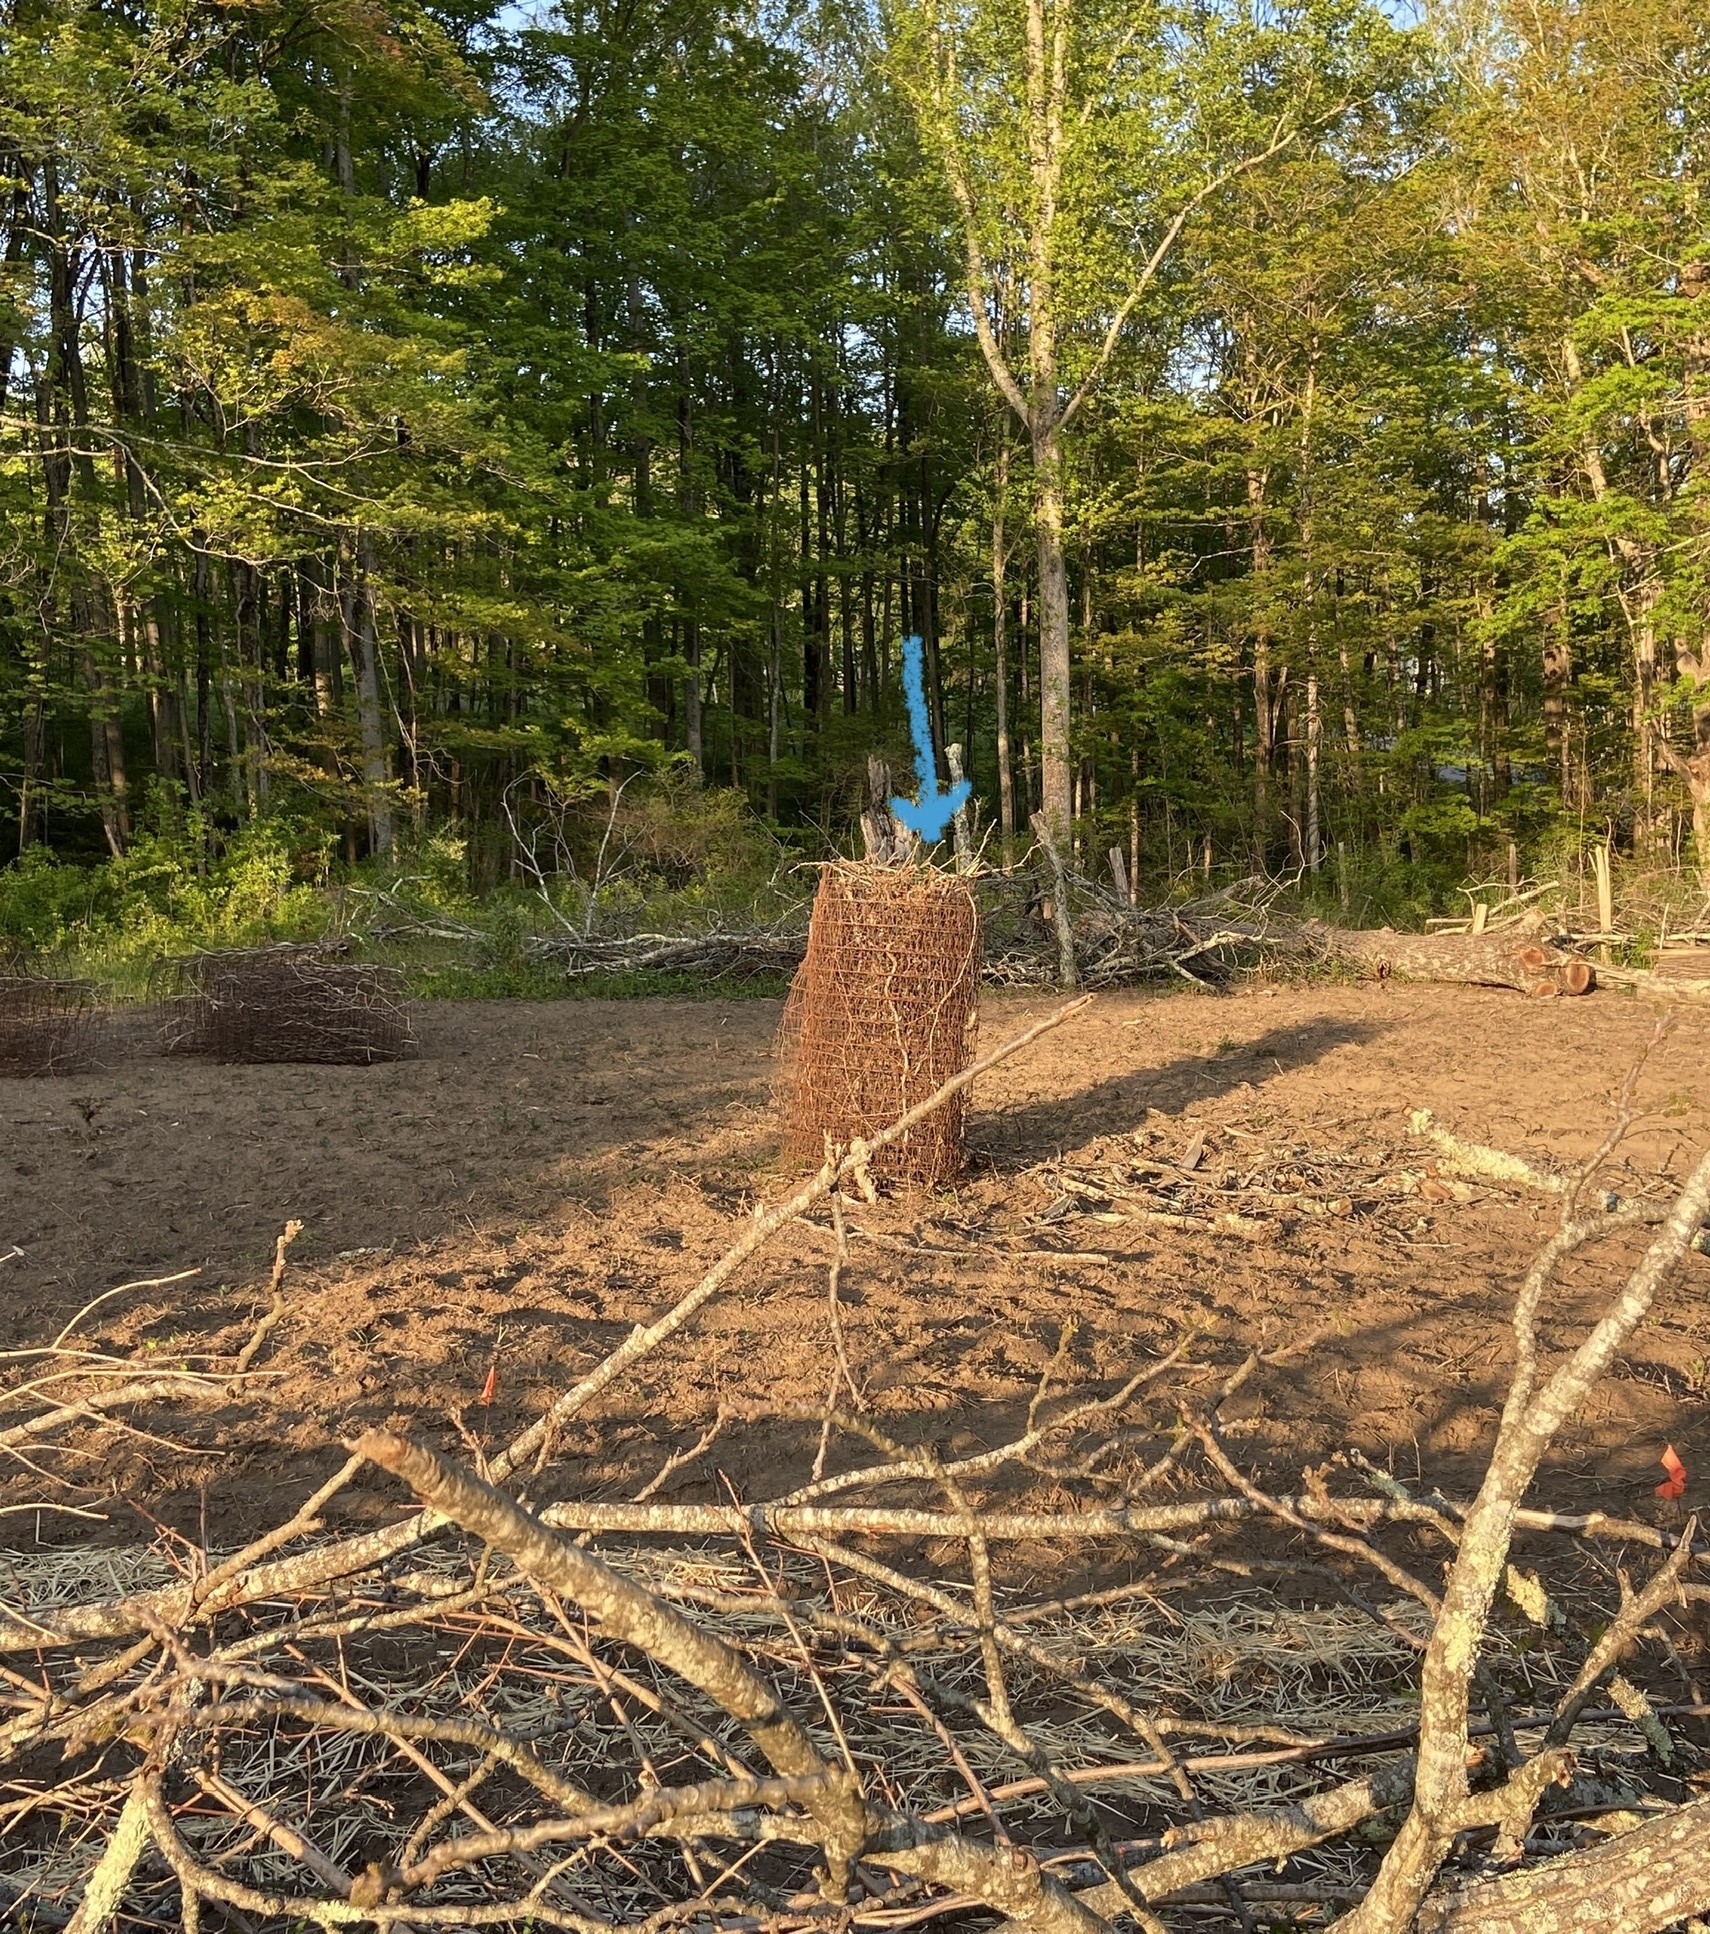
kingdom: Animalia
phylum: Chordata
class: Aves
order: Passeriformes
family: Turdidae
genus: Turdus
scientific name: Turdus migratorius
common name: American robin
